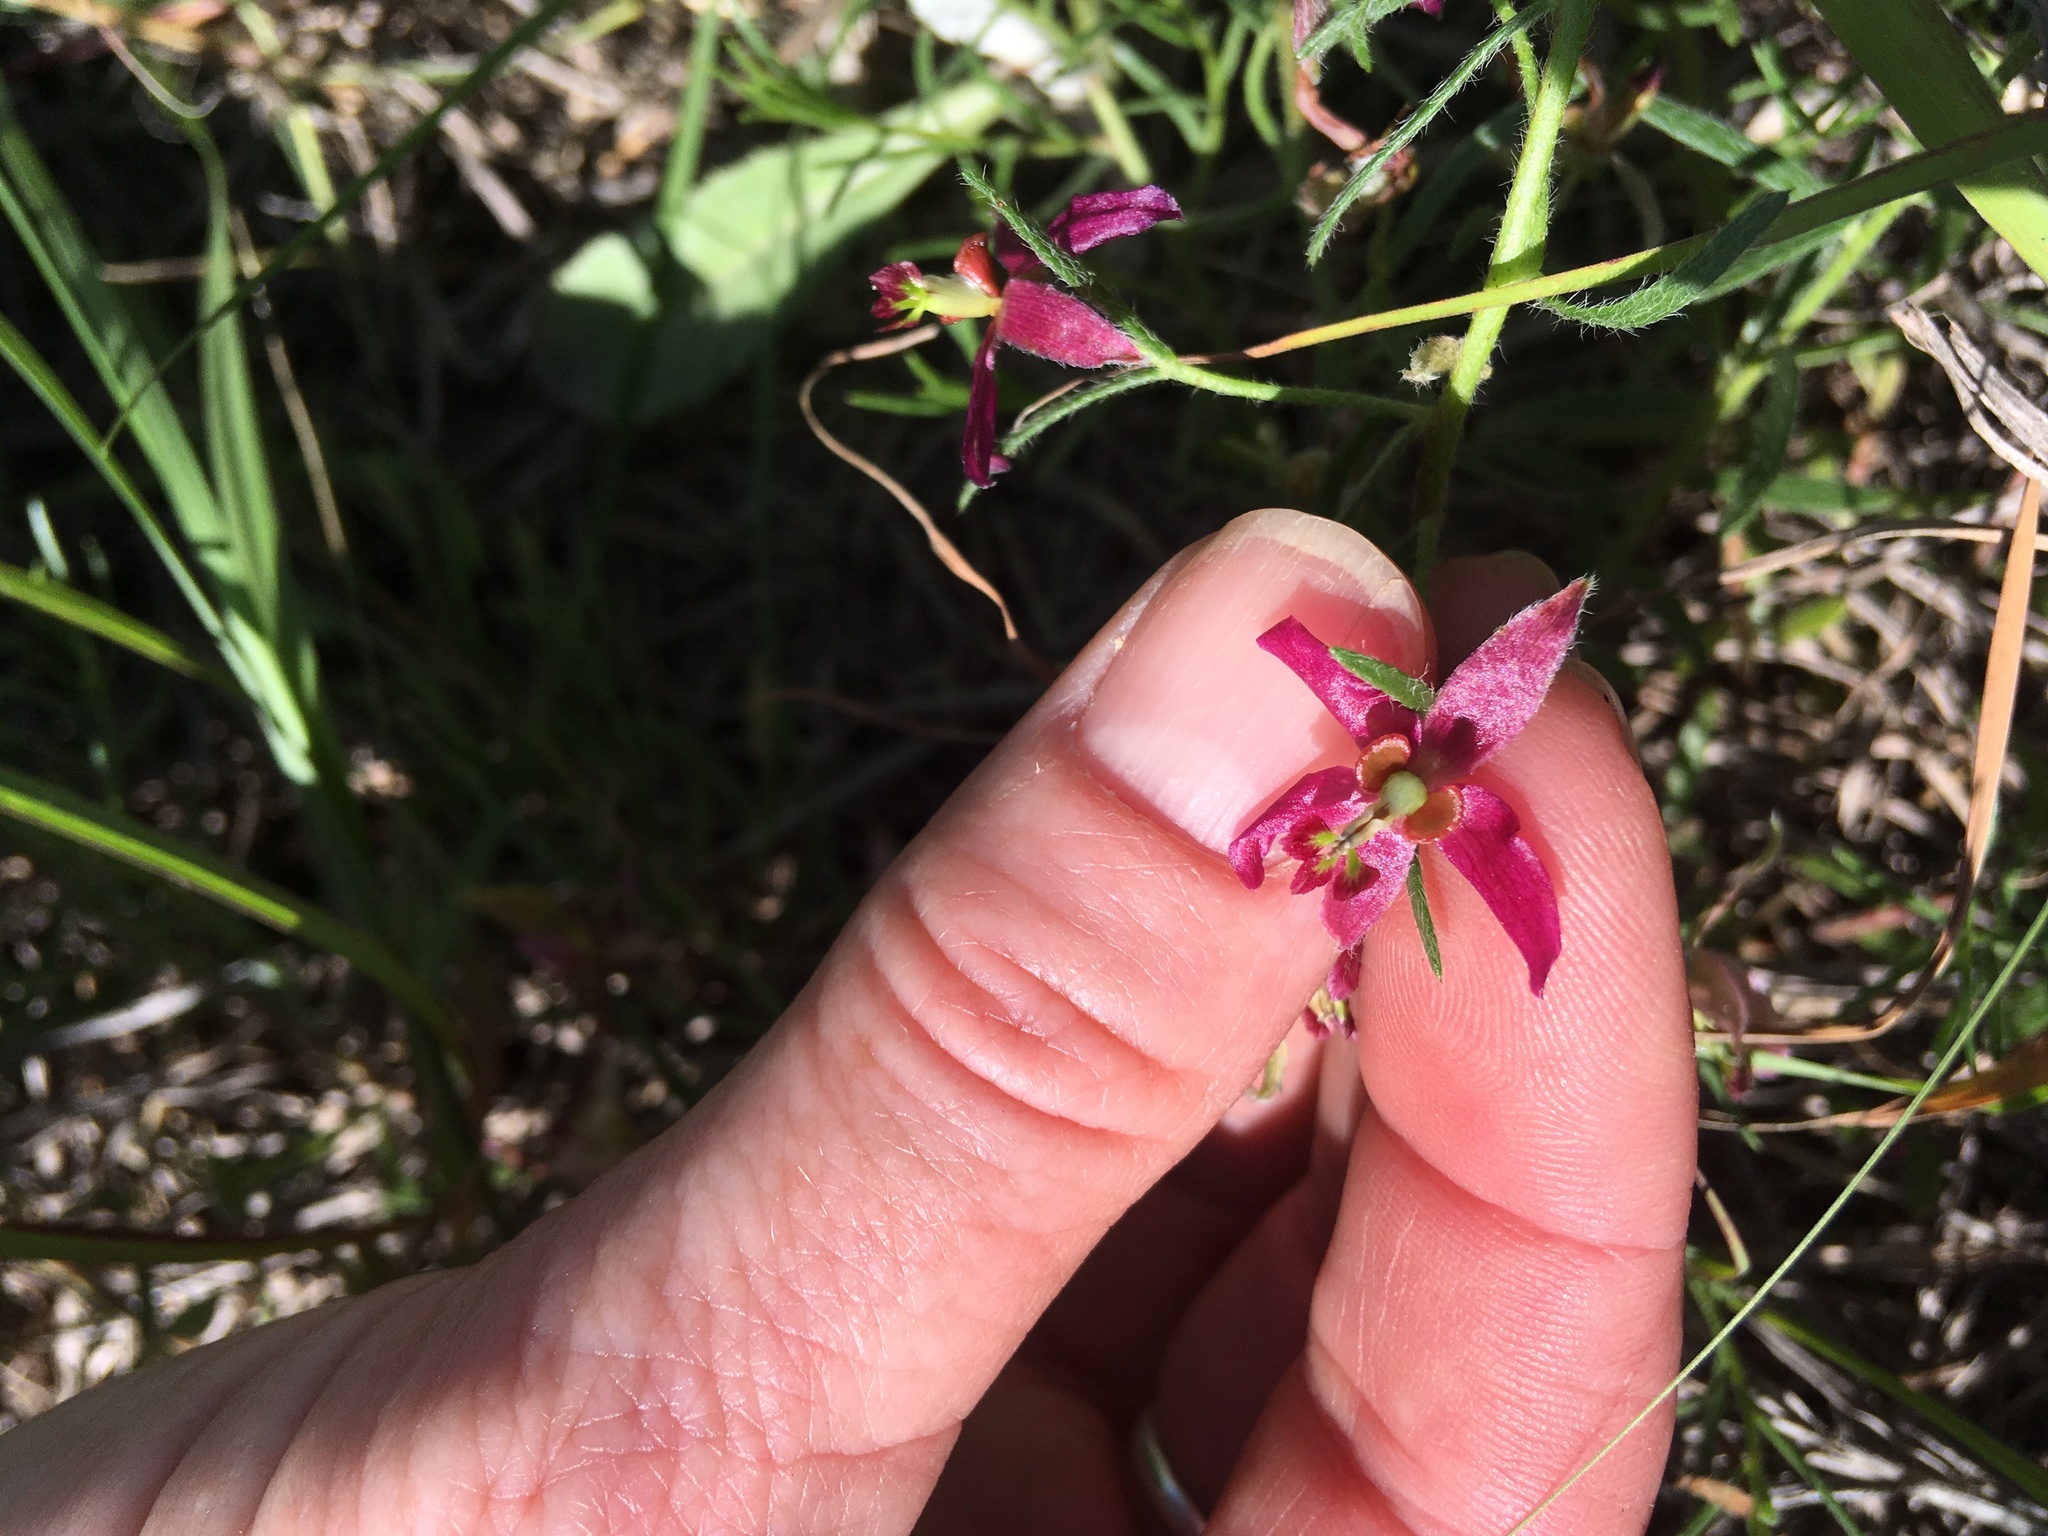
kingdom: Plantae
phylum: Tracheophyta
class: Magnoliopsida
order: Zygophyllales
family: Krameriaceae
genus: Krameria
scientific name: Krameria lanceolata
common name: Ratany
